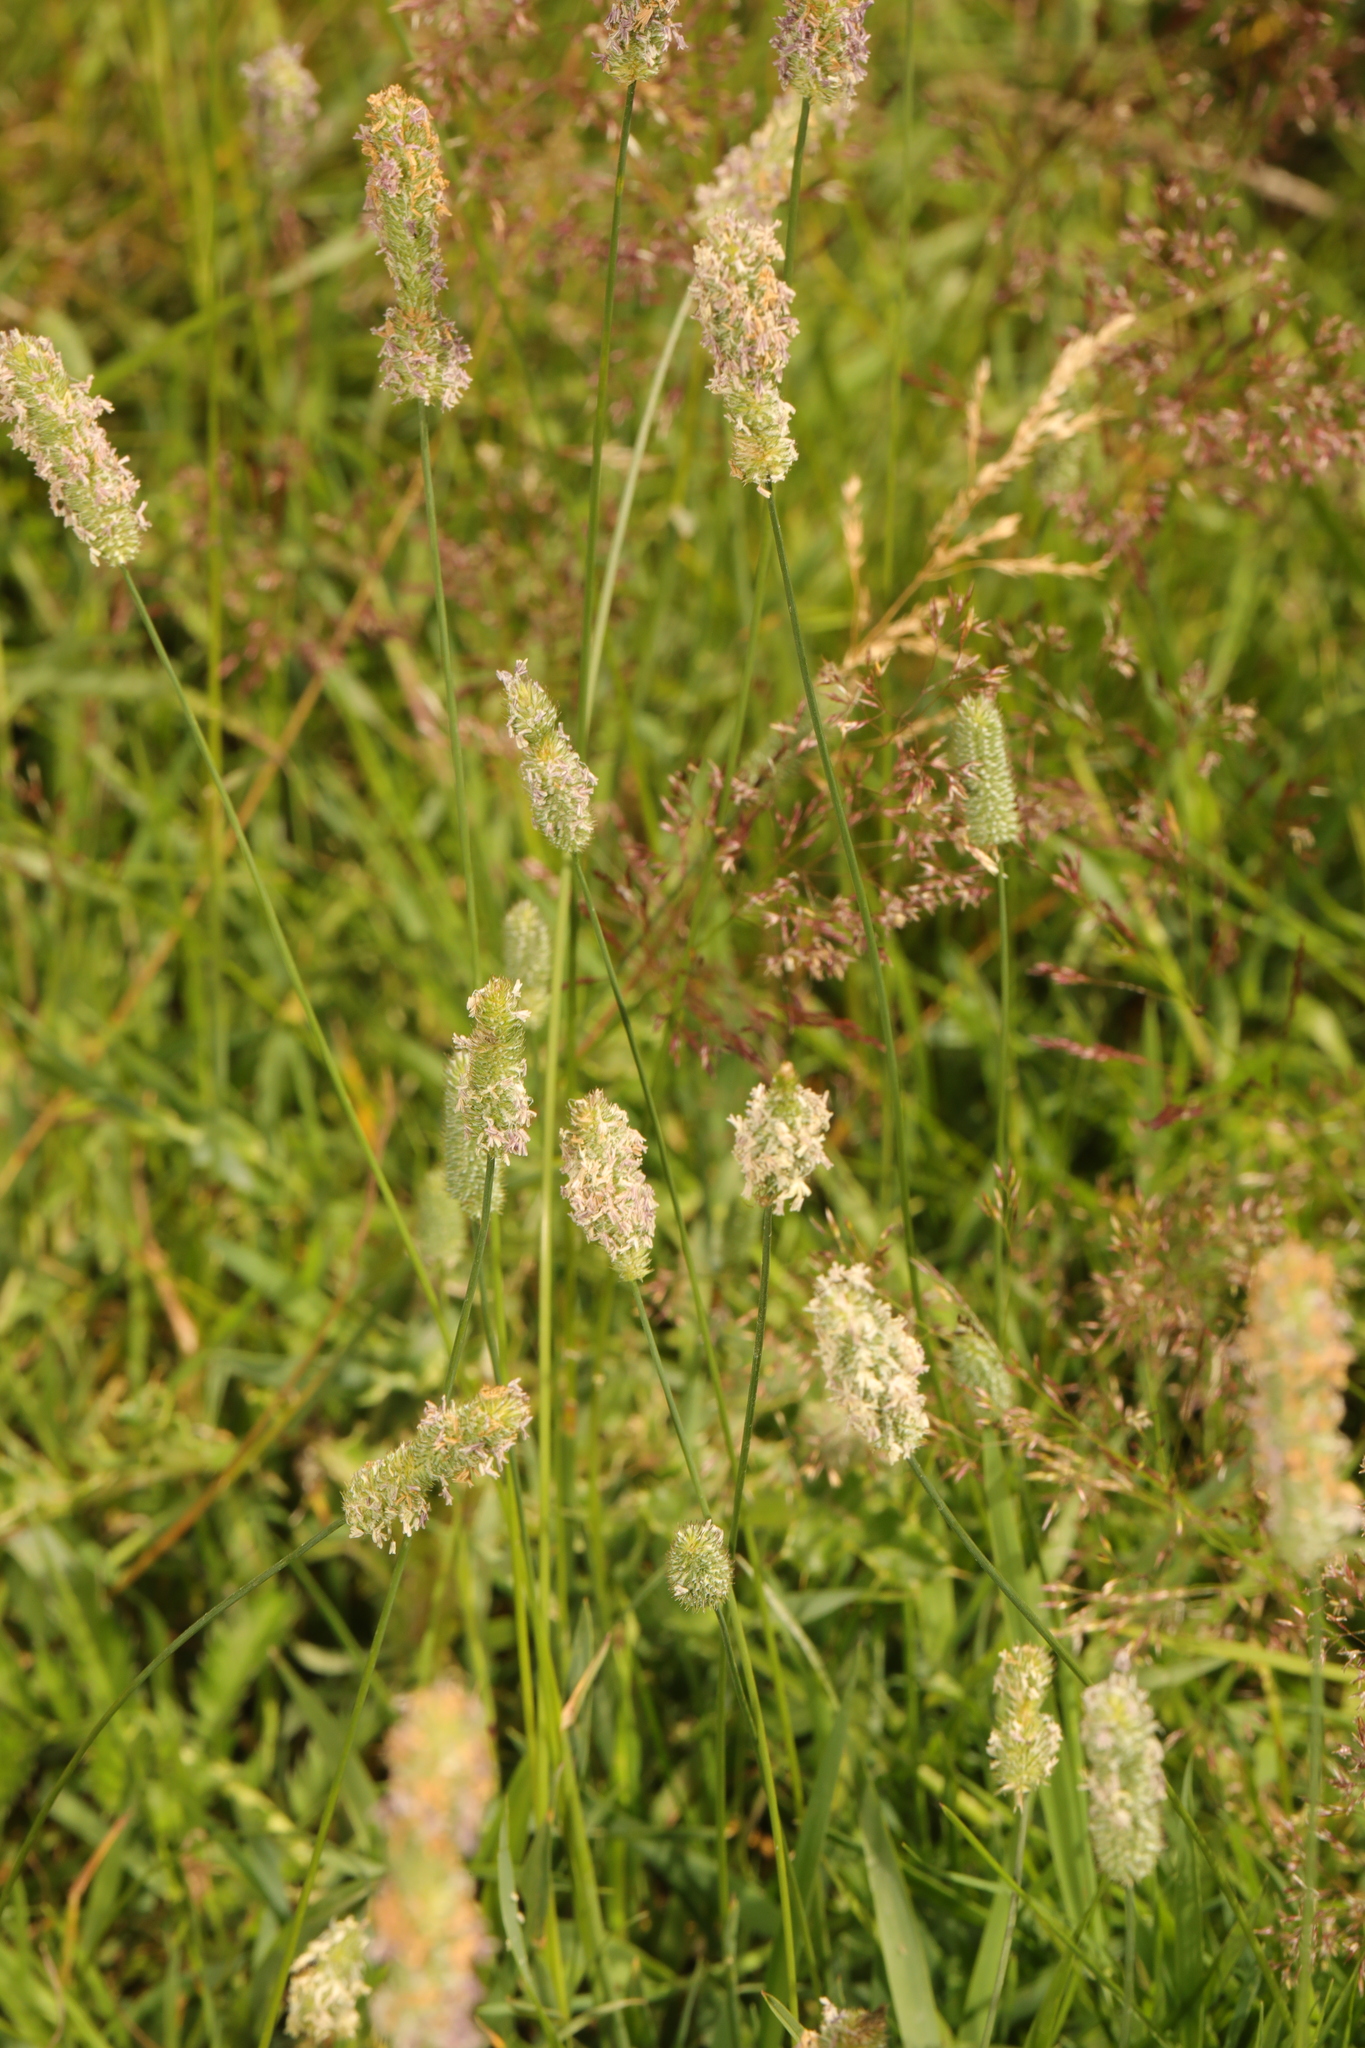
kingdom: Plantae
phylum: Tracheophyta
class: Liliopsida
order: Poales
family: Poaceae
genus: Phleum
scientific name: Phleum pratense
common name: Timothy grass
